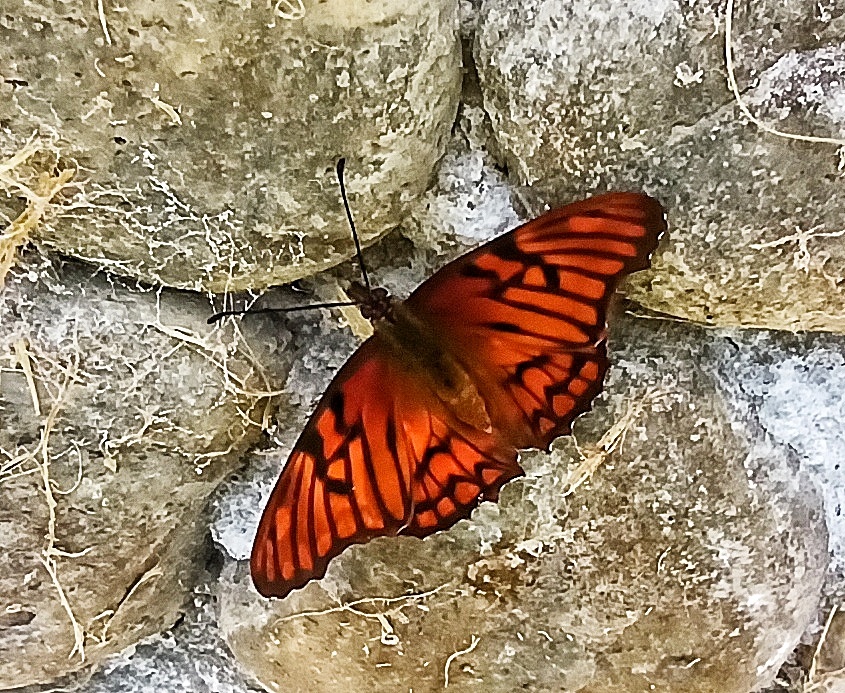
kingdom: Animalia
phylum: Arthropoda
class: Insecta
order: Lepidoptera
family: Nymphalidae
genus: Dione
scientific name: Dione glycera
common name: Andean silverspot
